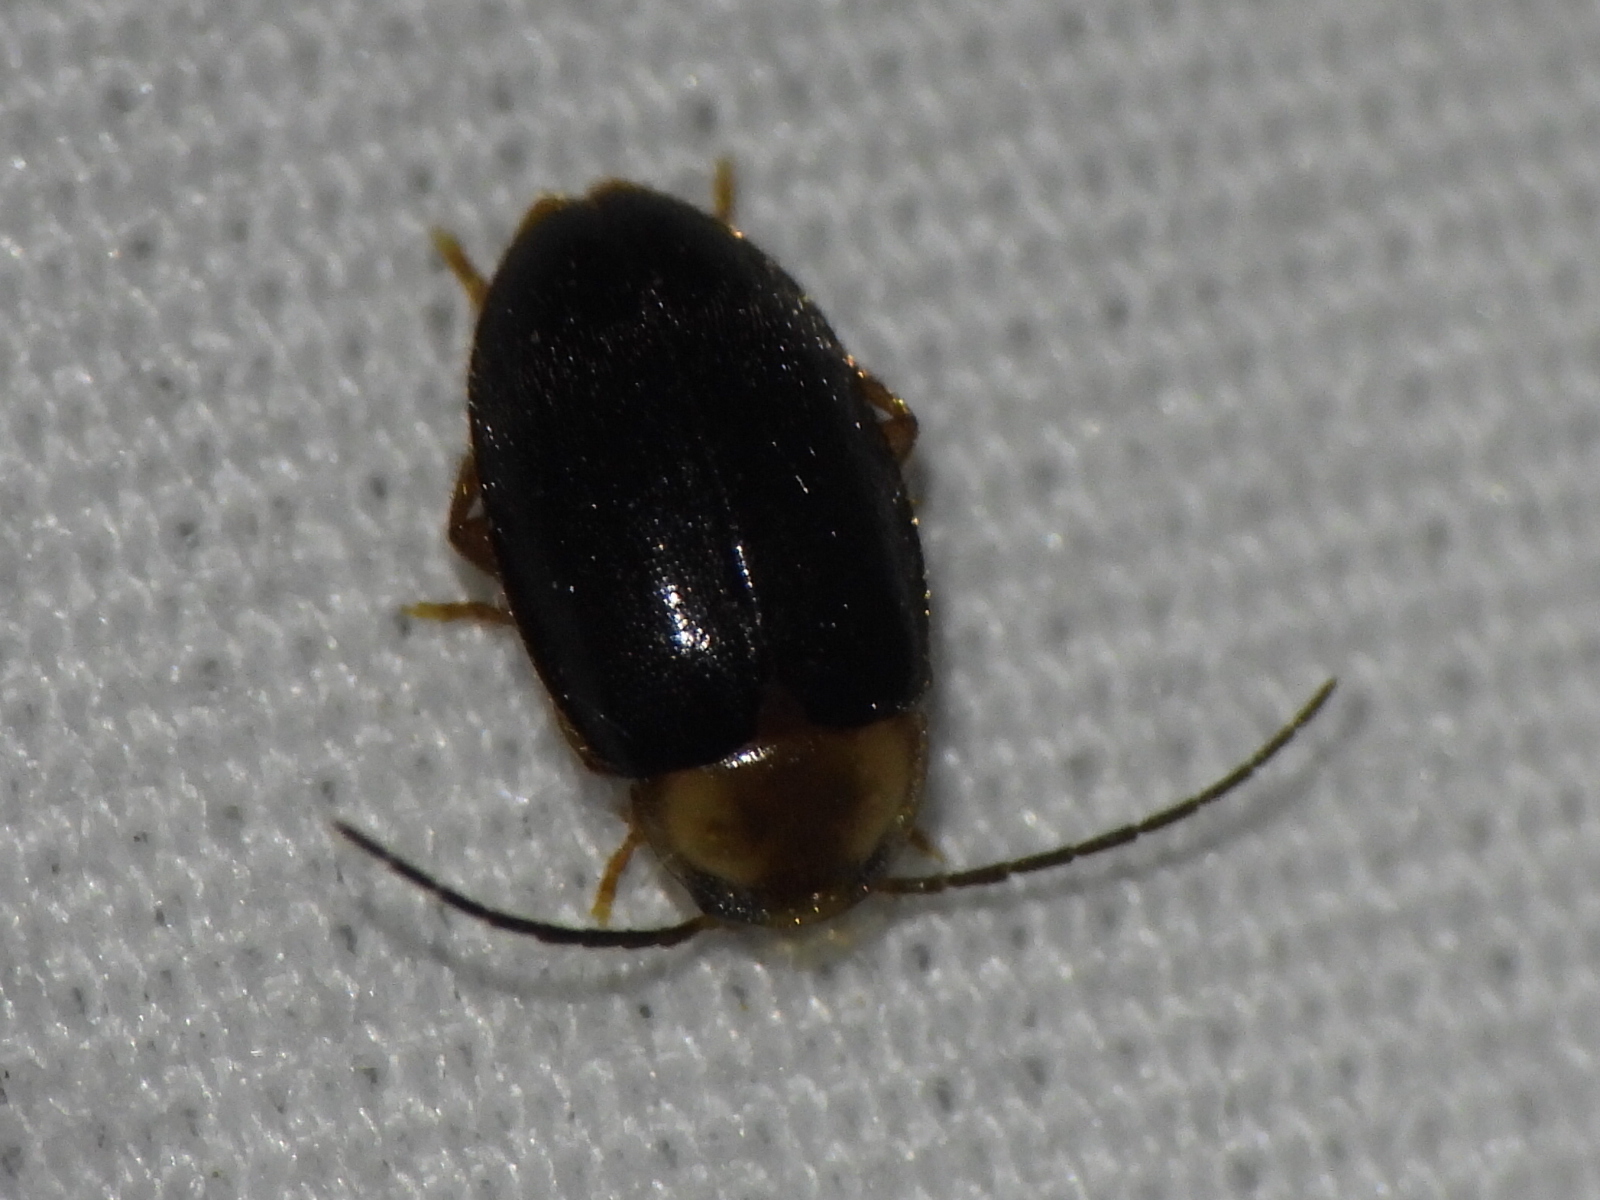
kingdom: Animalia
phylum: Arthropoda
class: Insecta
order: Coleoptera
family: Scirtidae
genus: Sacodes
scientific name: Sacodes pulchella
